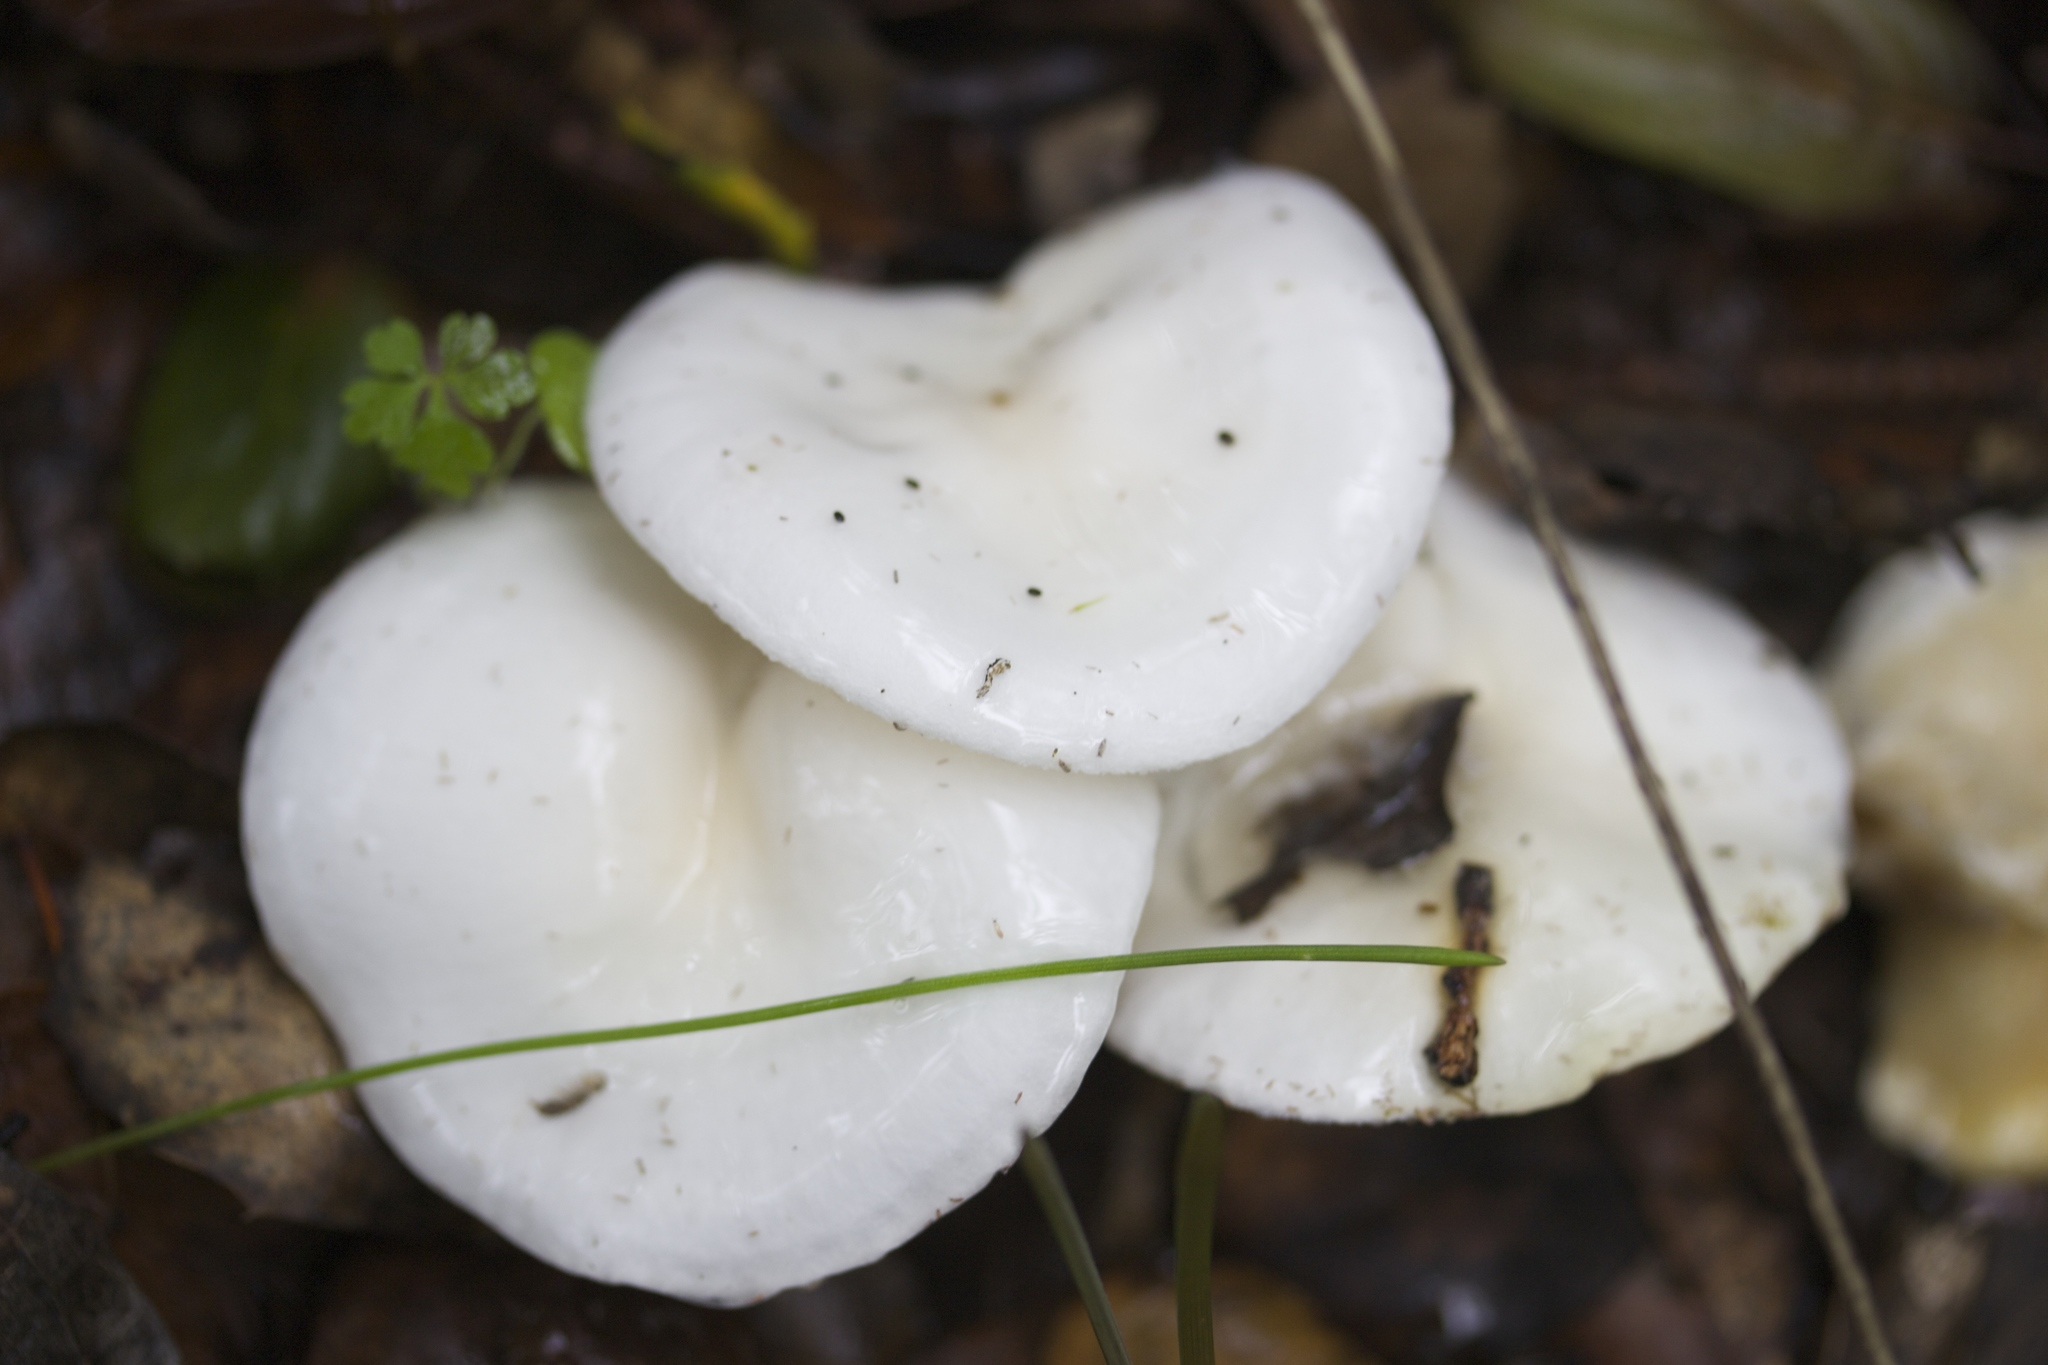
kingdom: Fungi
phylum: Basidiomycota
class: Agaricomycetes
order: Agaricales
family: Hygrophoraceae
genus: Hygrophorus
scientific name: Hygrophorus eburneus
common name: Ivory wax-cap
